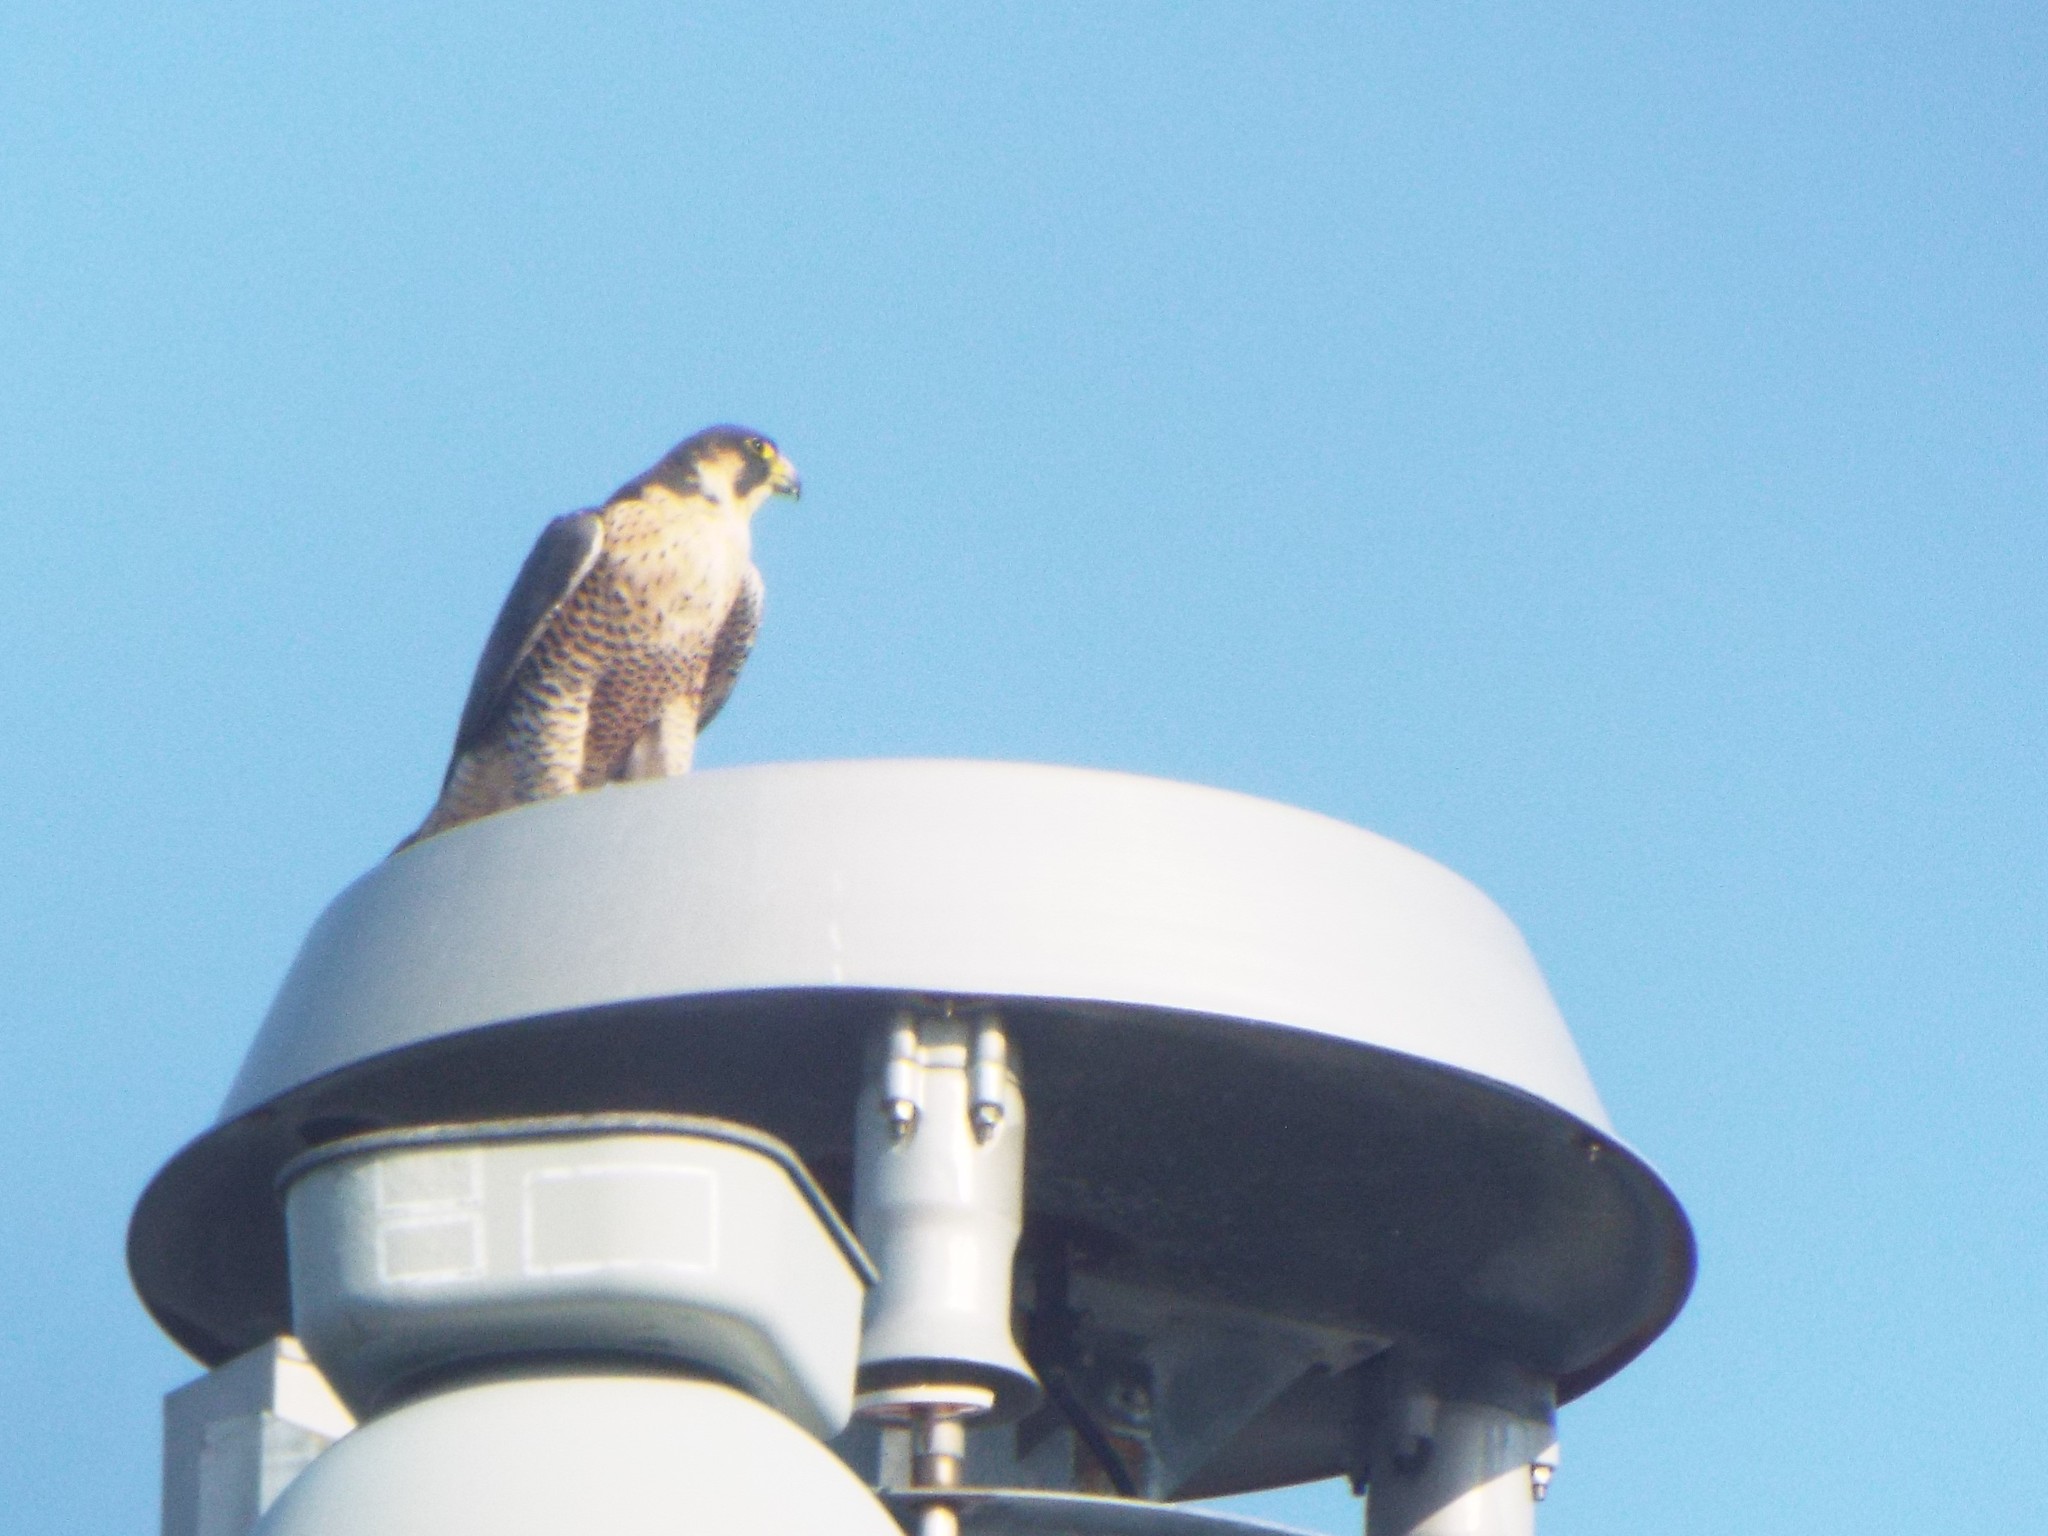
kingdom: Animalia
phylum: Chordata
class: Aves
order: Falconiformes
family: Falconidae
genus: Falco
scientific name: Falco peregrinus
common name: Peregrine falcon
